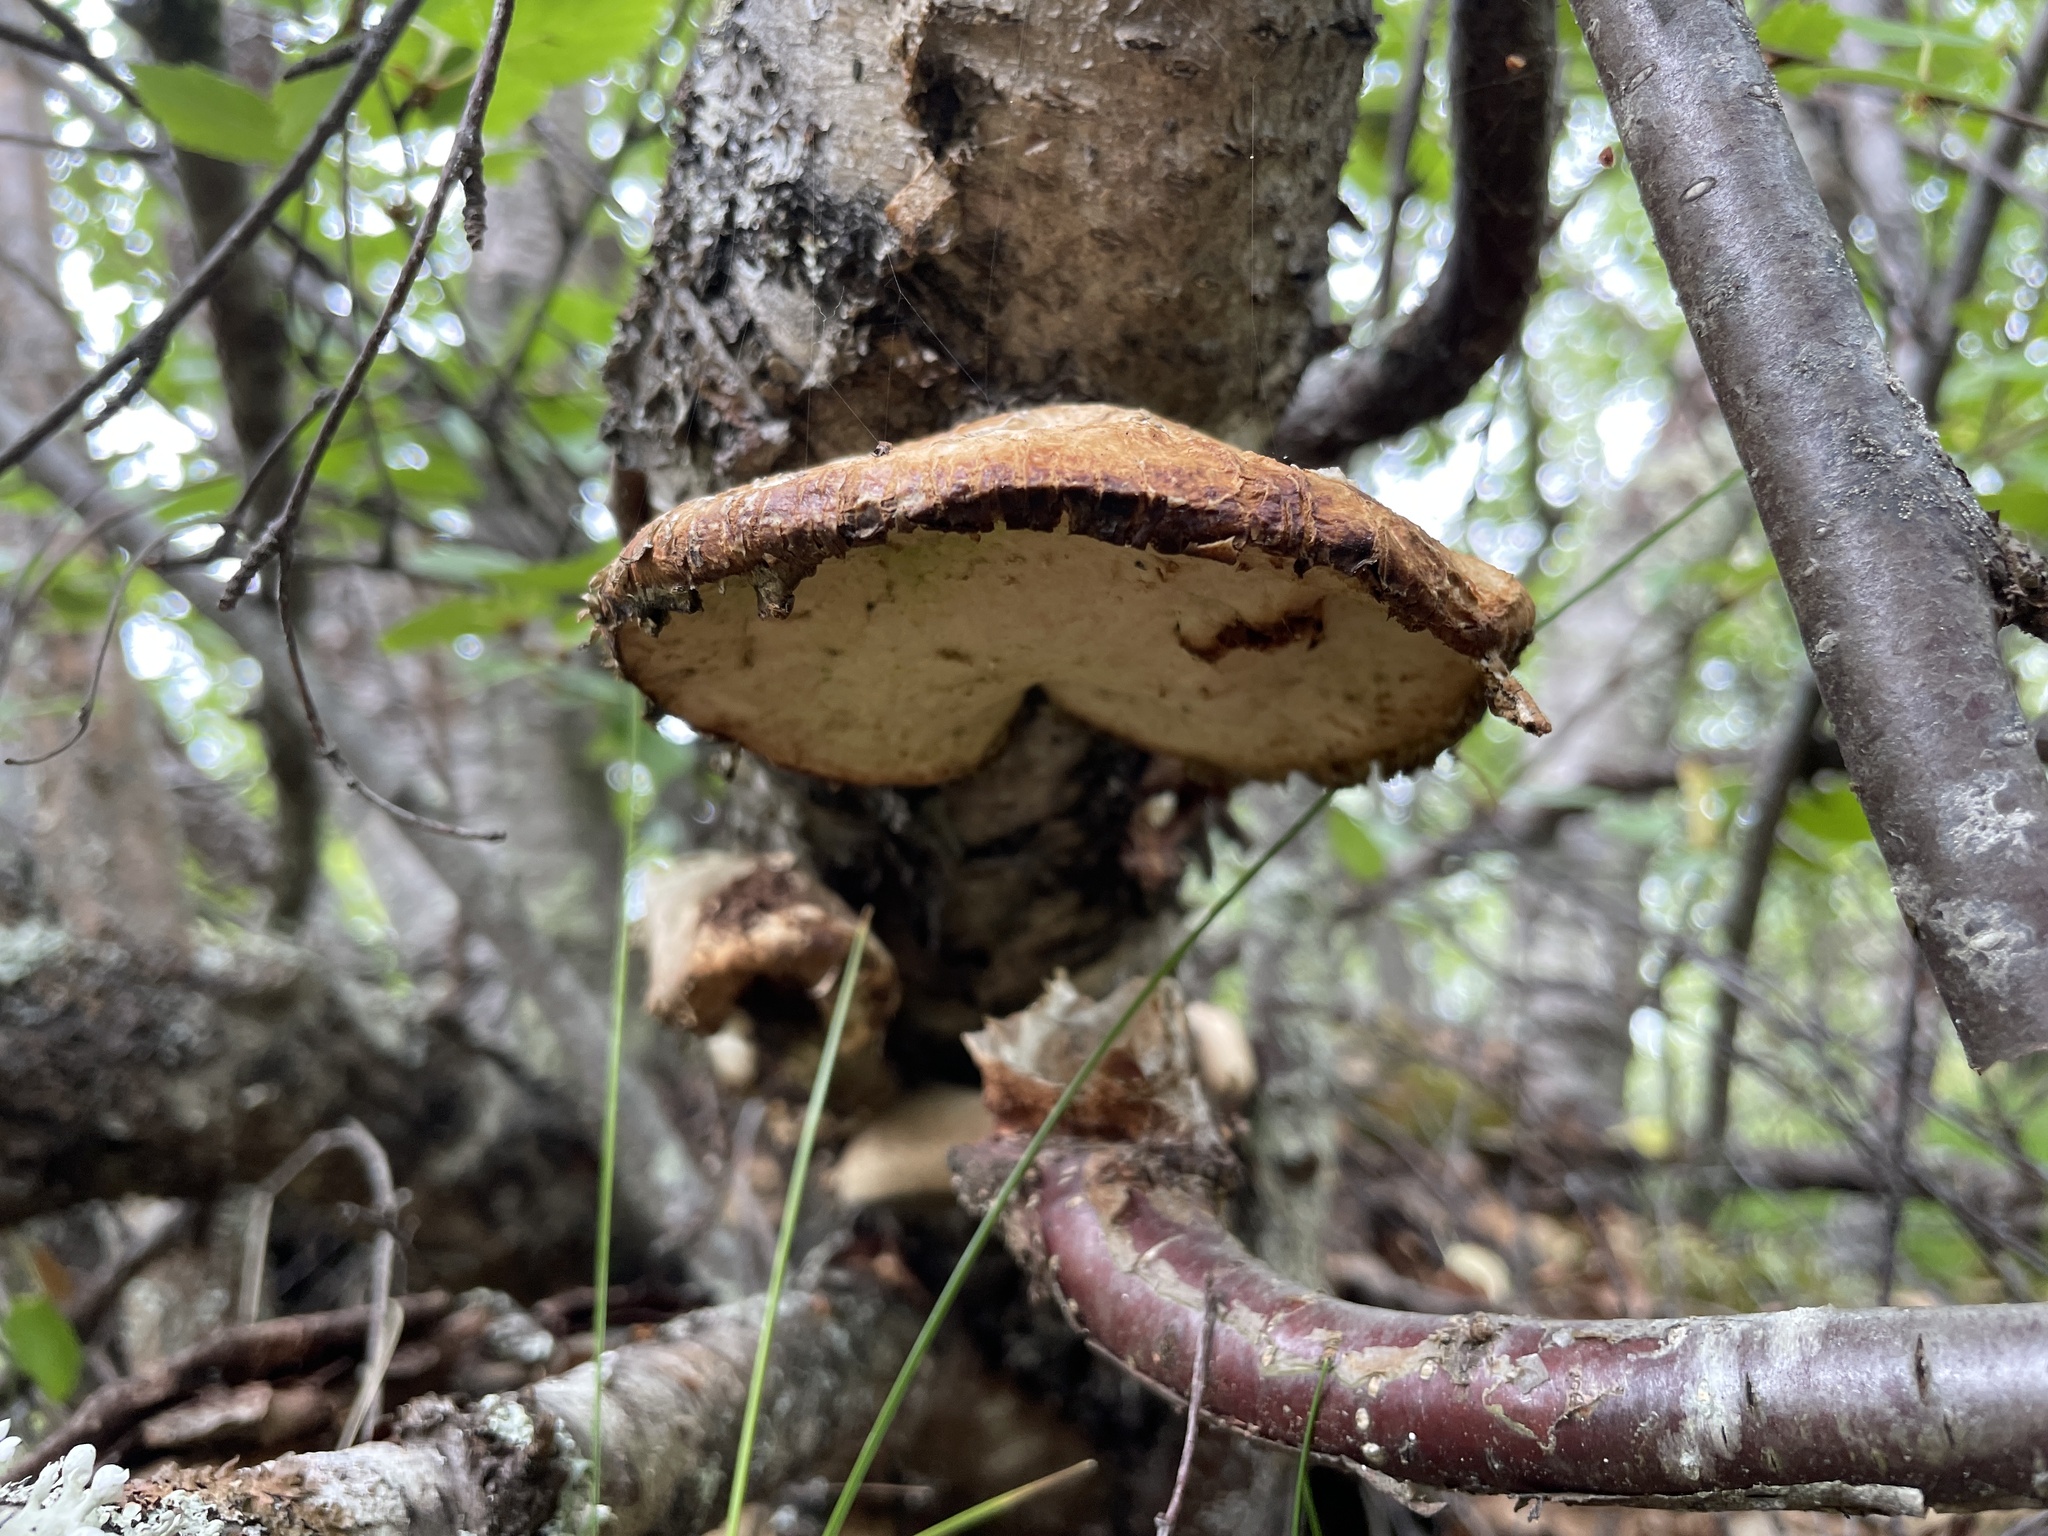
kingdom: Fungi
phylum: Basidiomycota
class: Agaricomycetes
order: Polyporales
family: Fomitopsidaceae
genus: Fomitopsis
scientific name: Fomitopsis betulina
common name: Birch polypore
